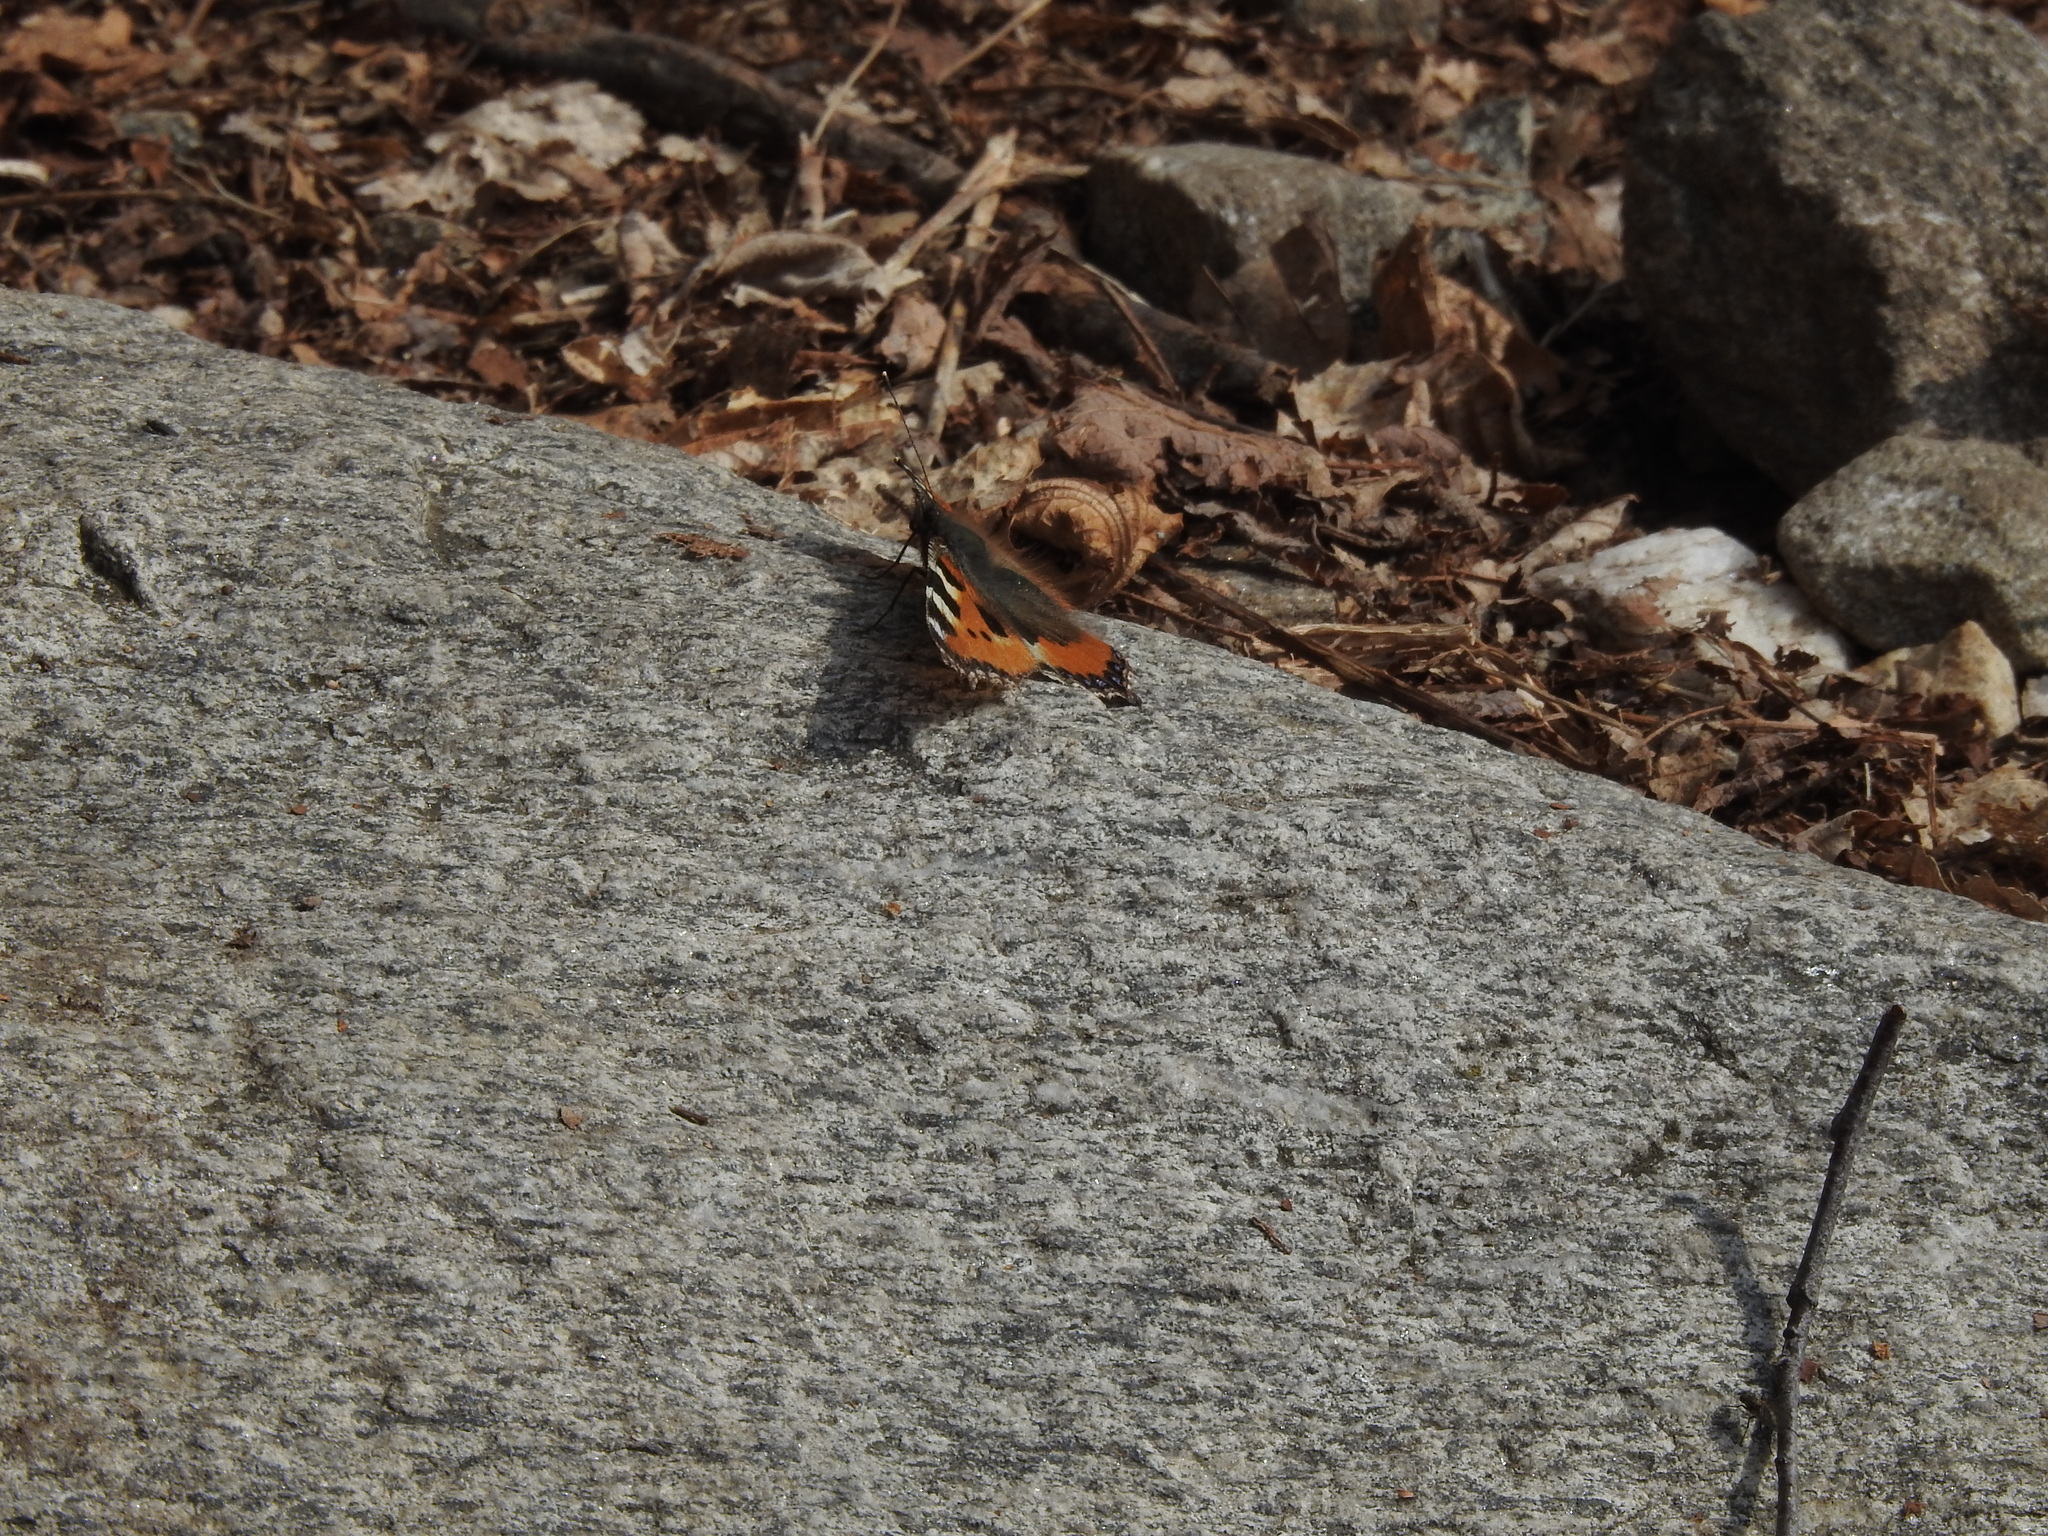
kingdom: Animalia
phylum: Arthropoda
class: Insecta
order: Lepidoptera
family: Nymphalidae
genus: Aglais
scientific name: Aglais urticae
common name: Small tortoiseshell
